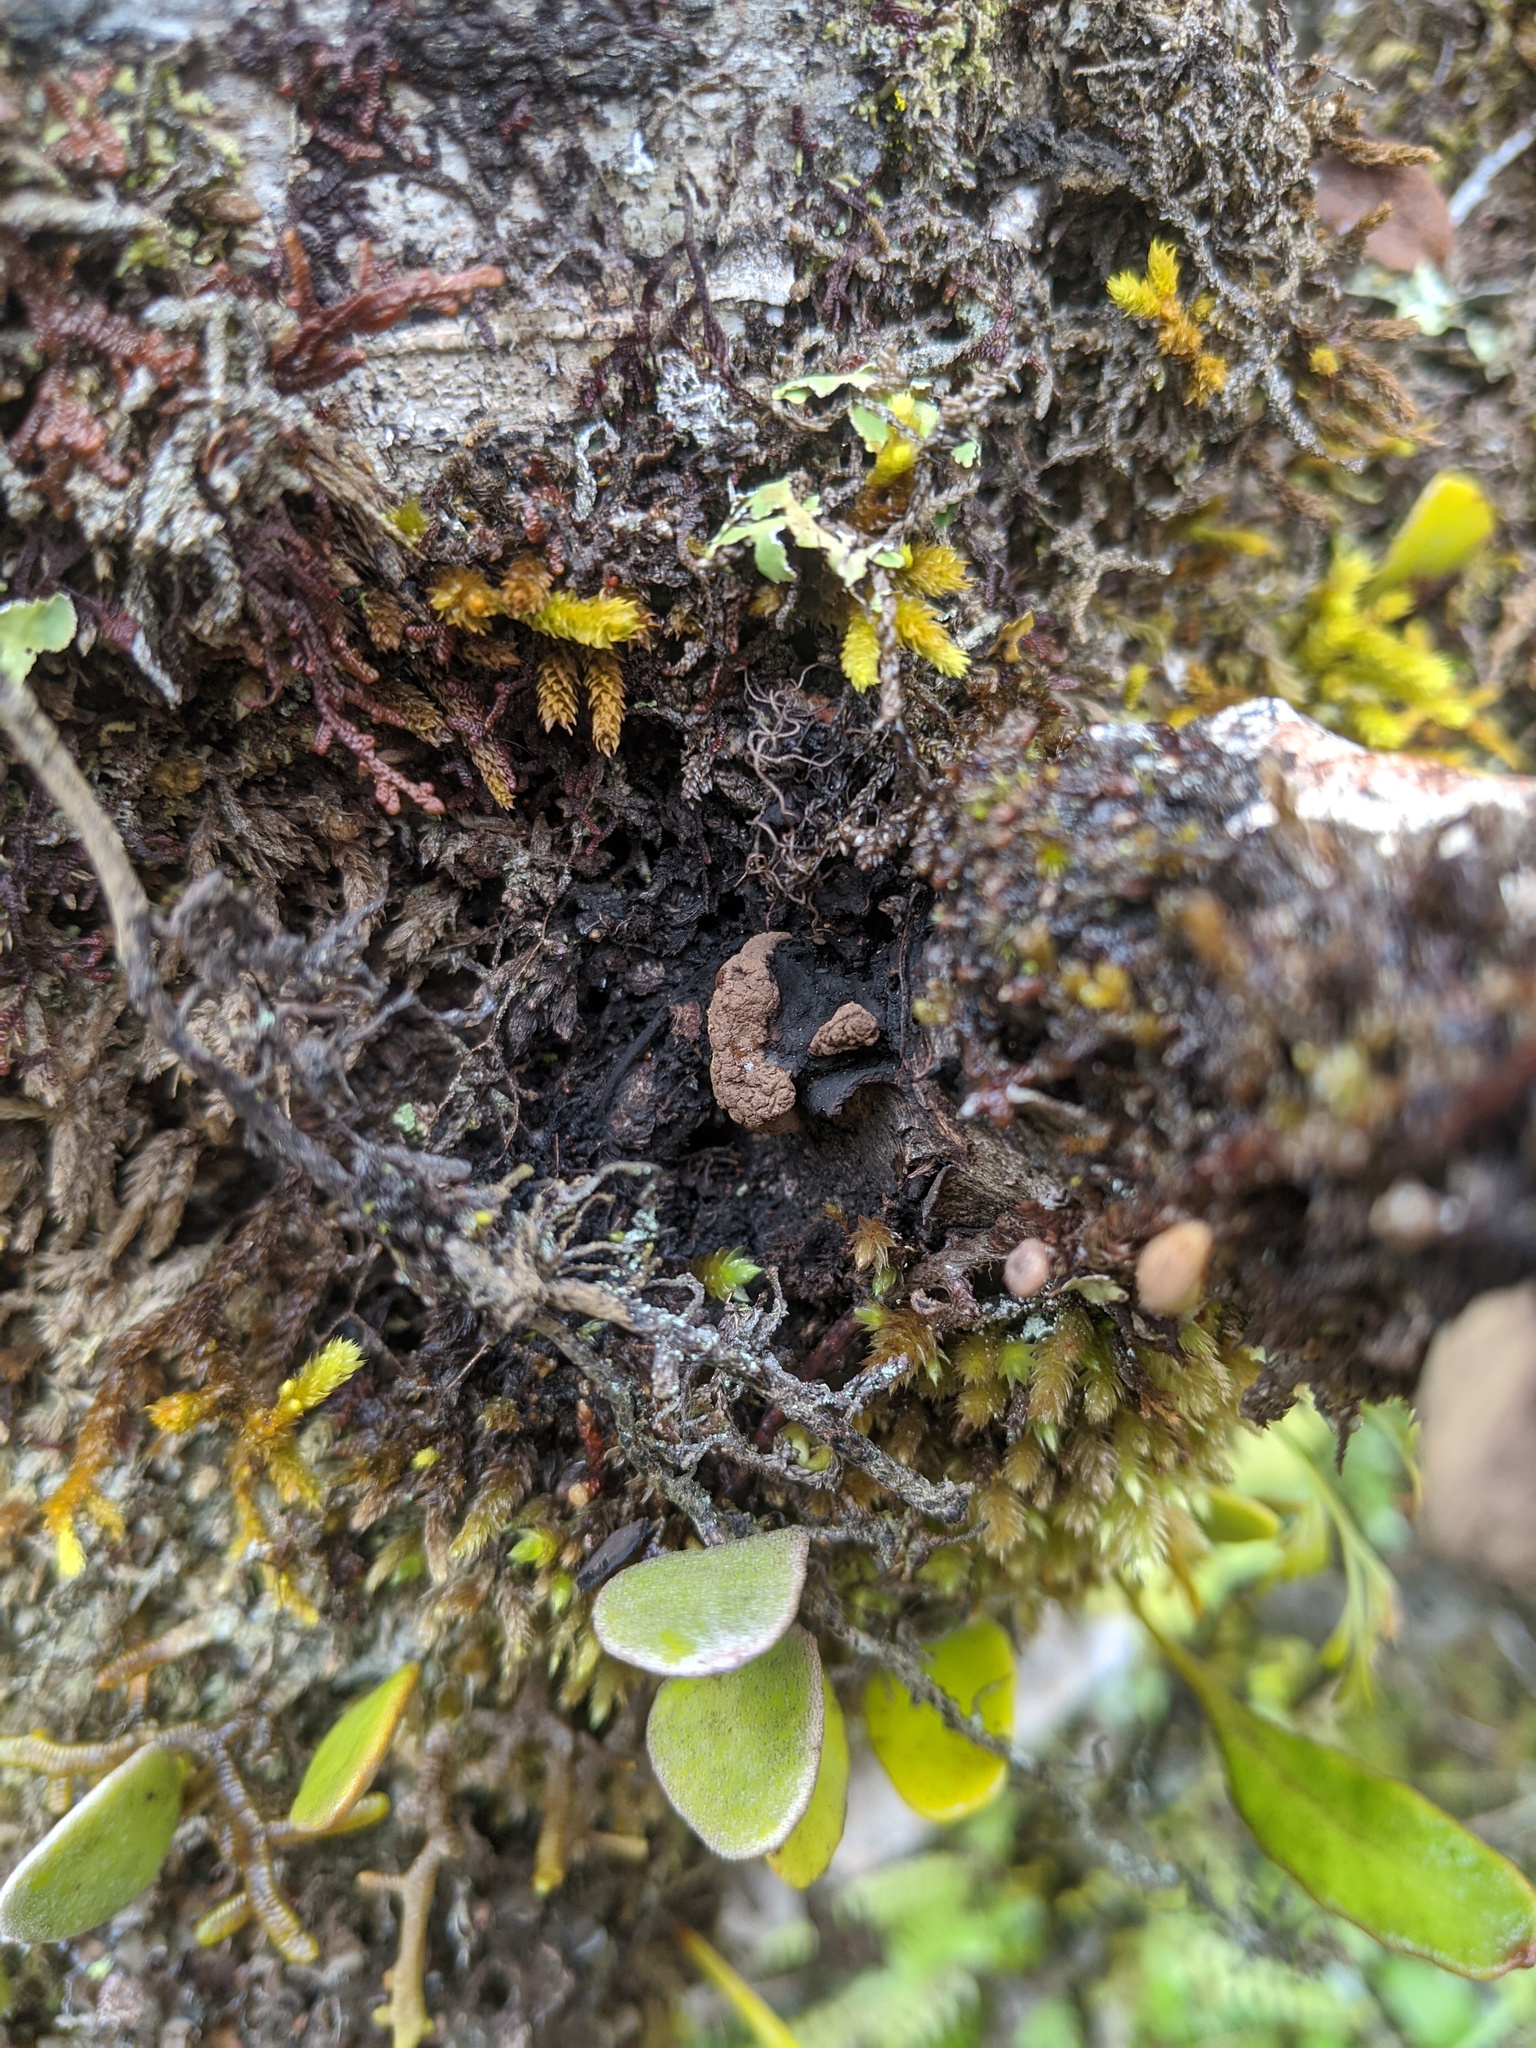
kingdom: Fungi
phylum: Ascomycota
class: Eurotiomycetes
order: Eurotiales
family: Trichocomaceae
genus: Trichocoma
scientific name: Trichocoma paradoxa
